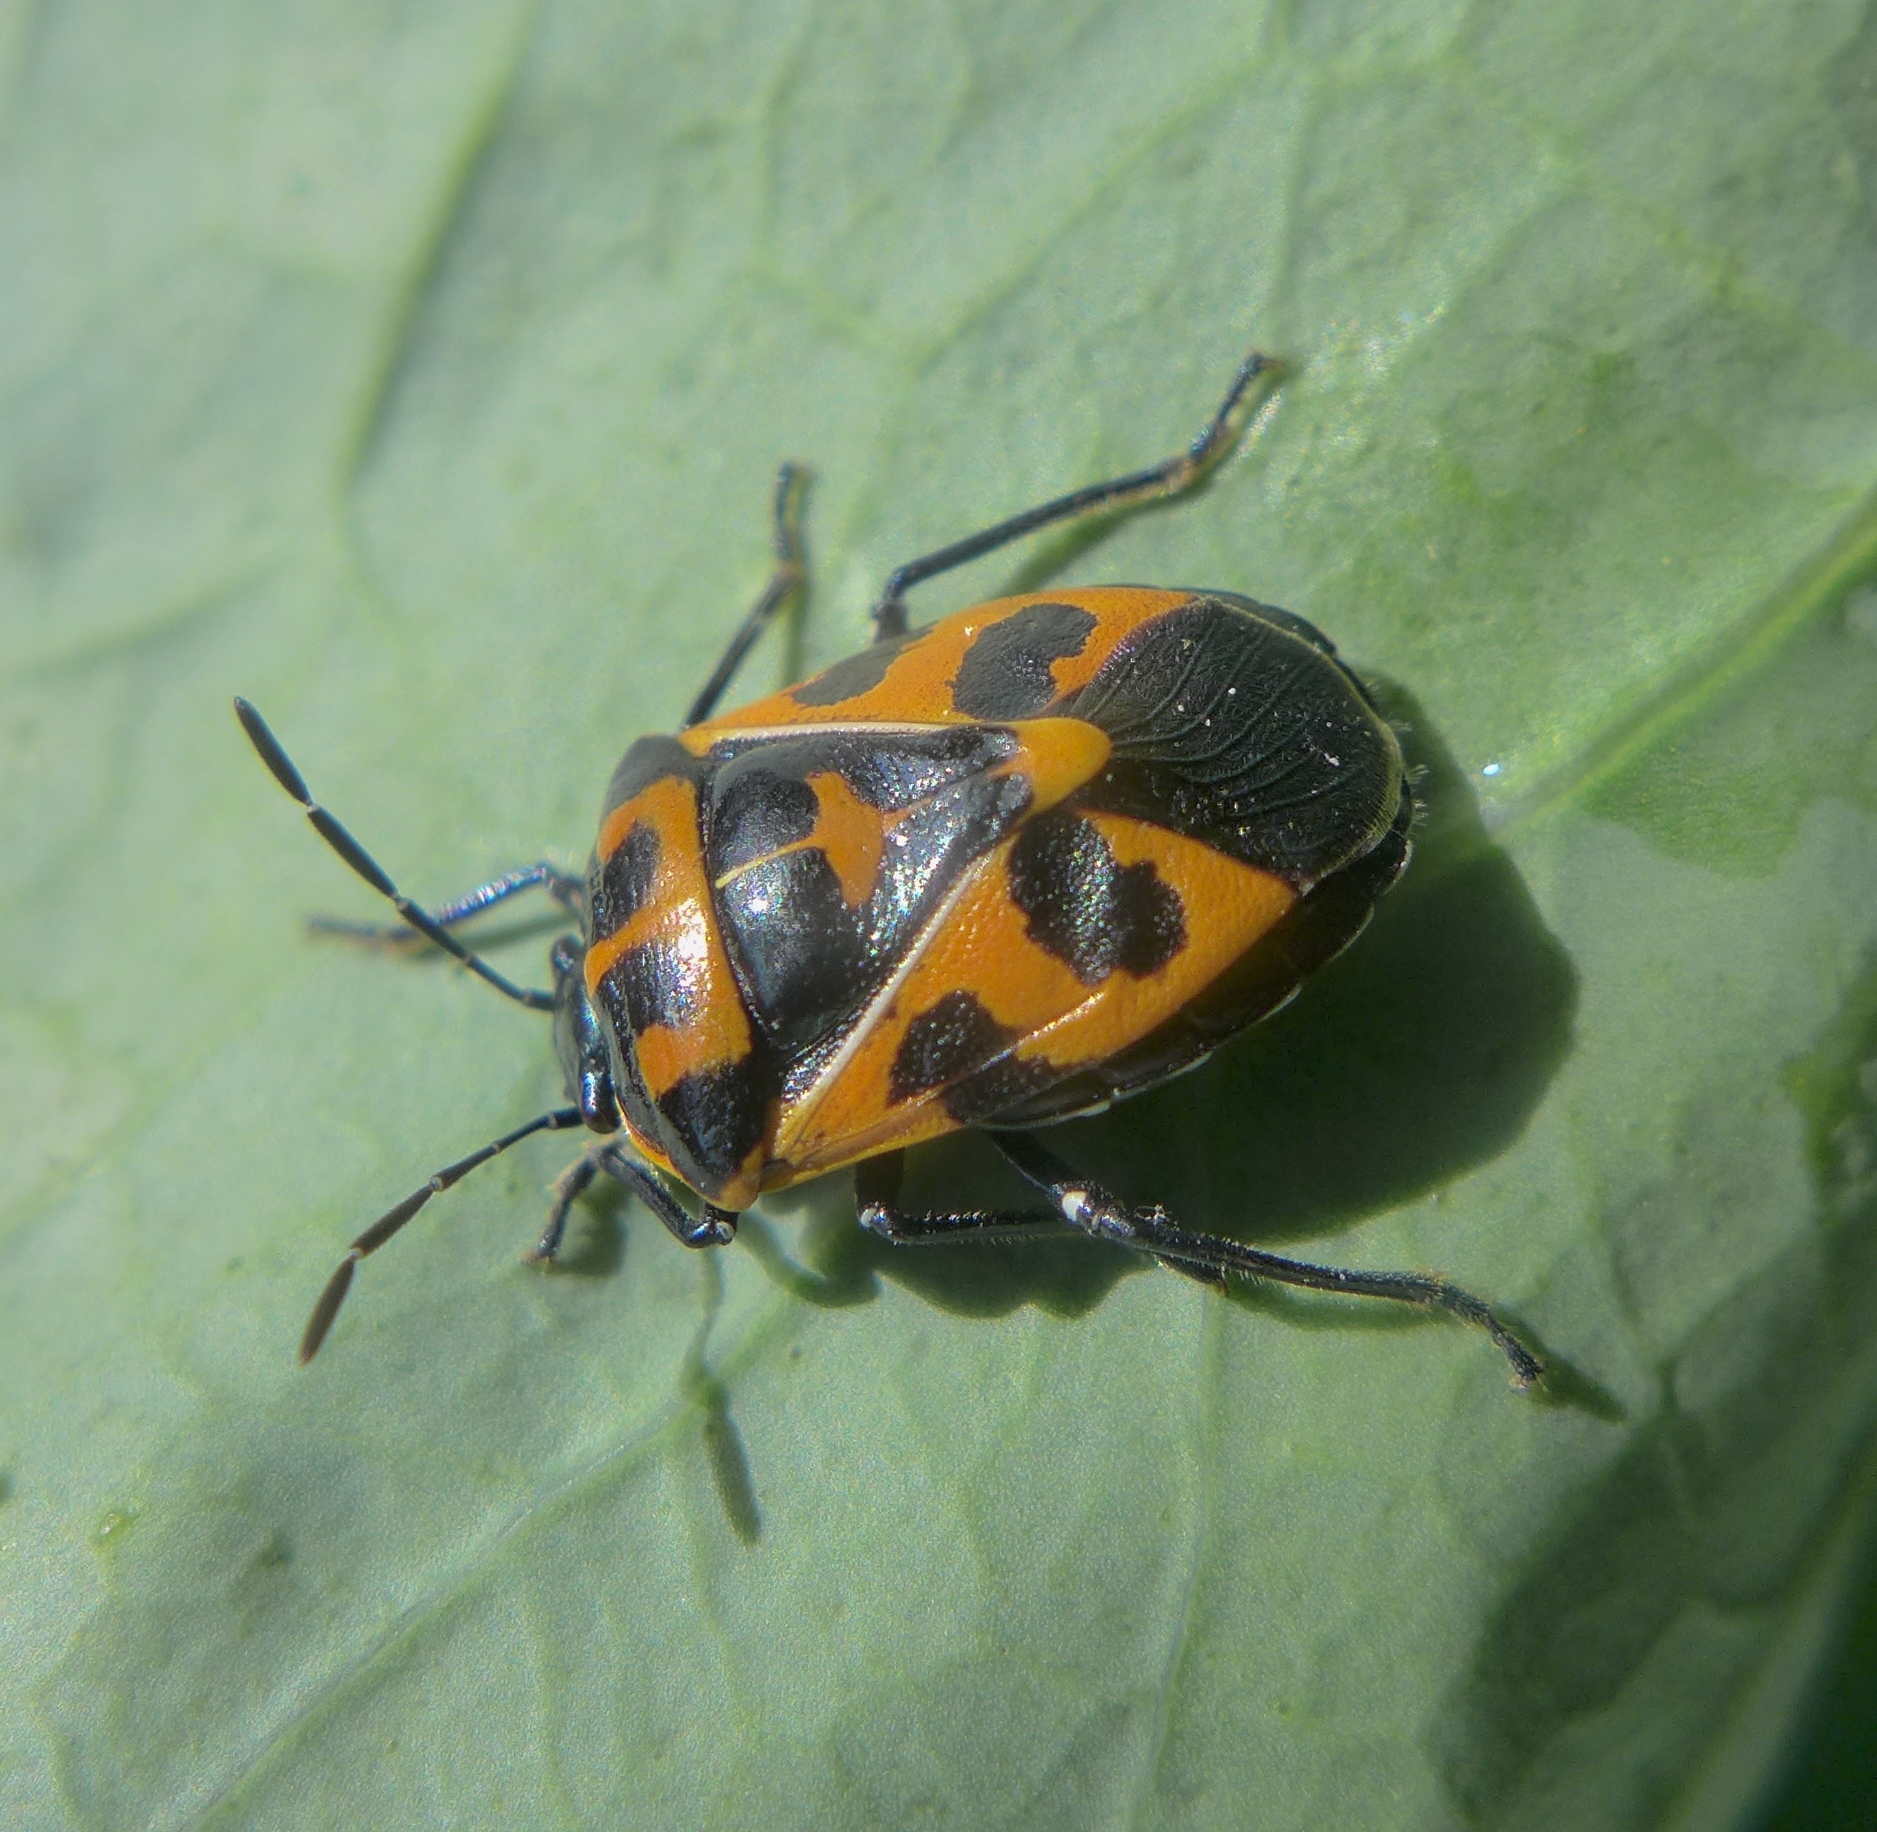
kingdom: Animalia
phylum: Arthropoda
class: Insecta
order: Hemiptera
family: Pentatomidae
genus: Murgantia
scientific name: Murgantia histrionica
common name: Harlequin bug
